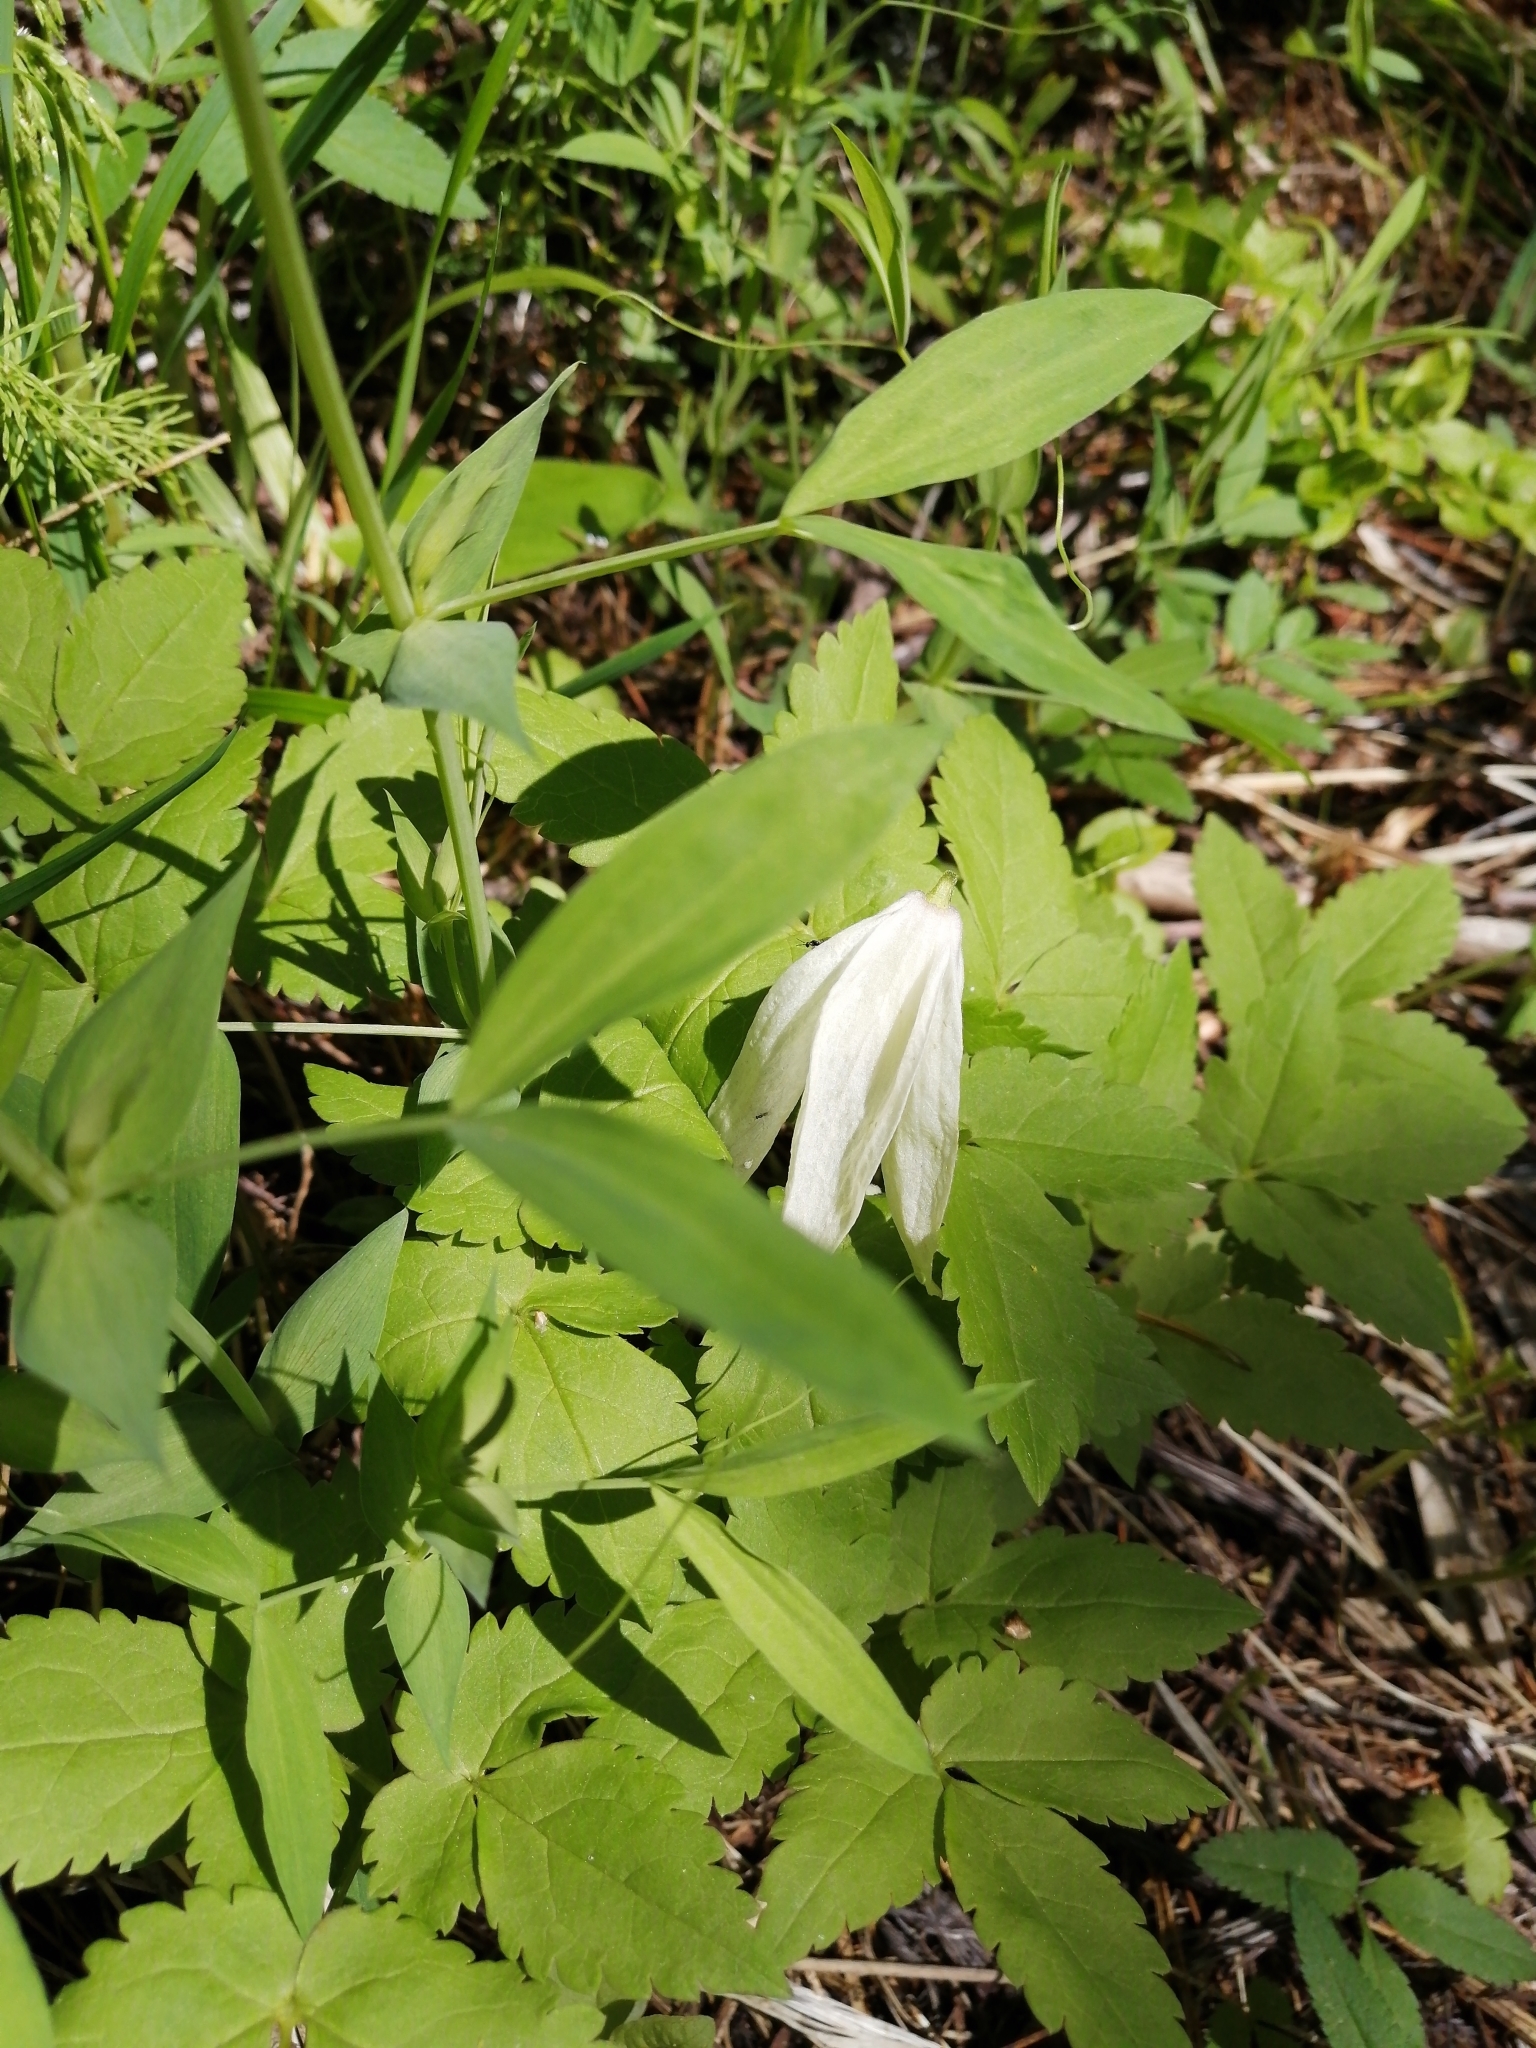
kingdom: Plantae
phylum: Tracheophyta
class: Magnoliopsida
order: Ranunculales
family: Ranunculaceae
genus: Clematis
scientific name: Clematis sibirica
